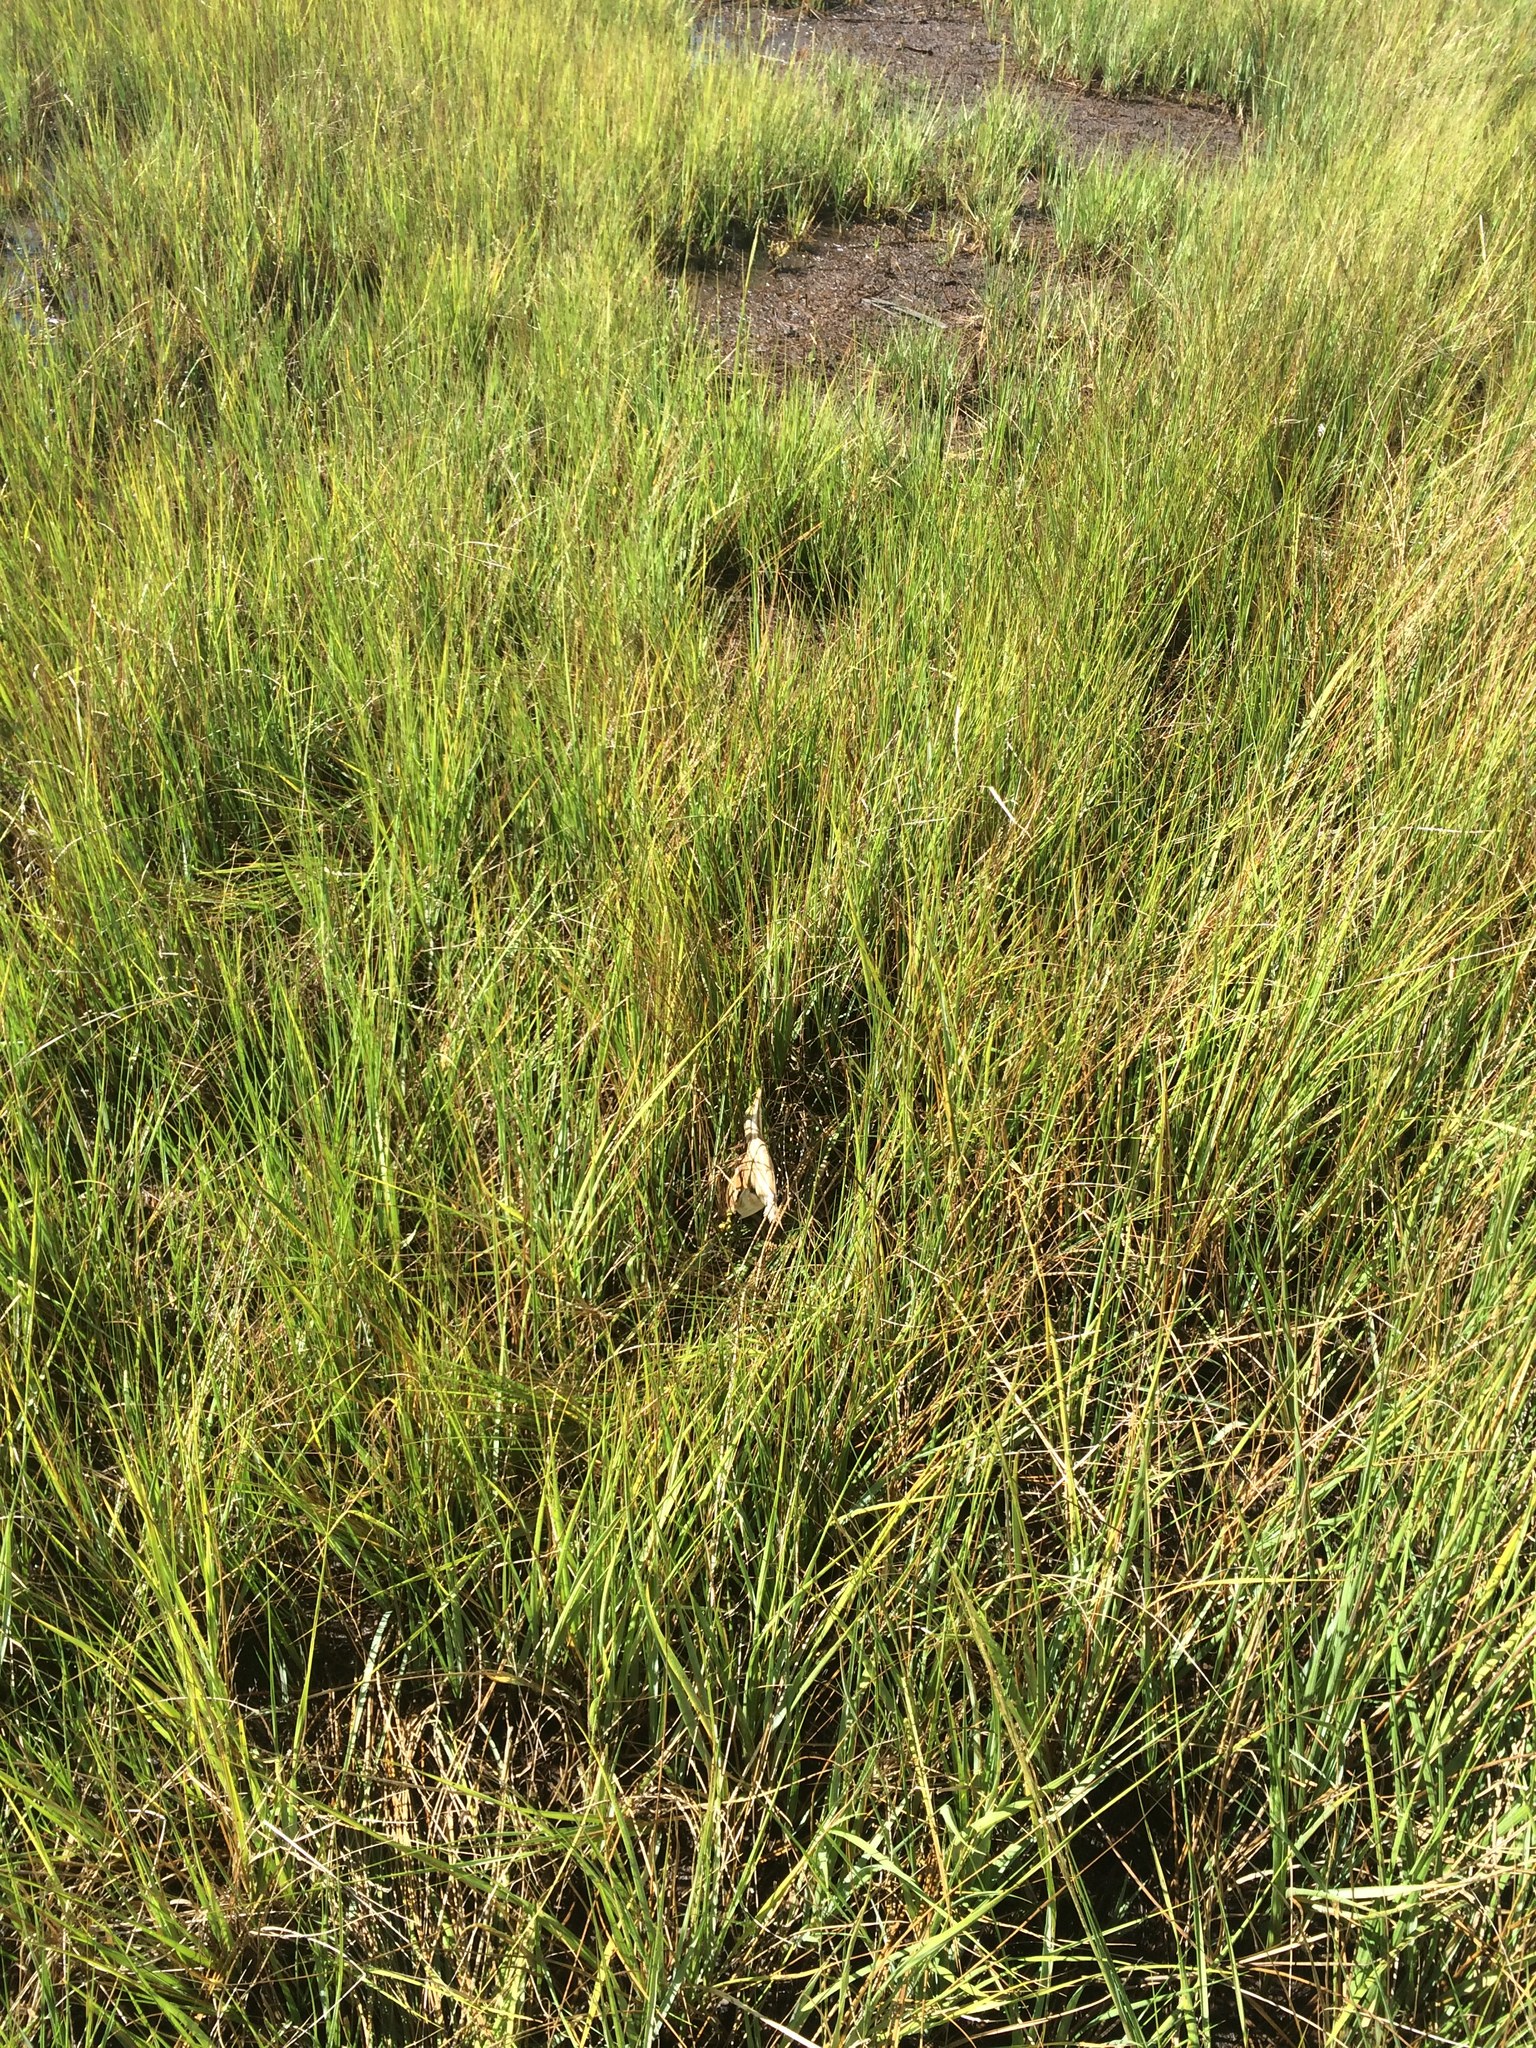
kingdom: Animalia
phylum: Chordata
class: Aves
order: Pelecaniformes
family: Ardeidae
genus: Ixobrychus
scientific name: Ixobrychus exilis
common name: Least bittern
